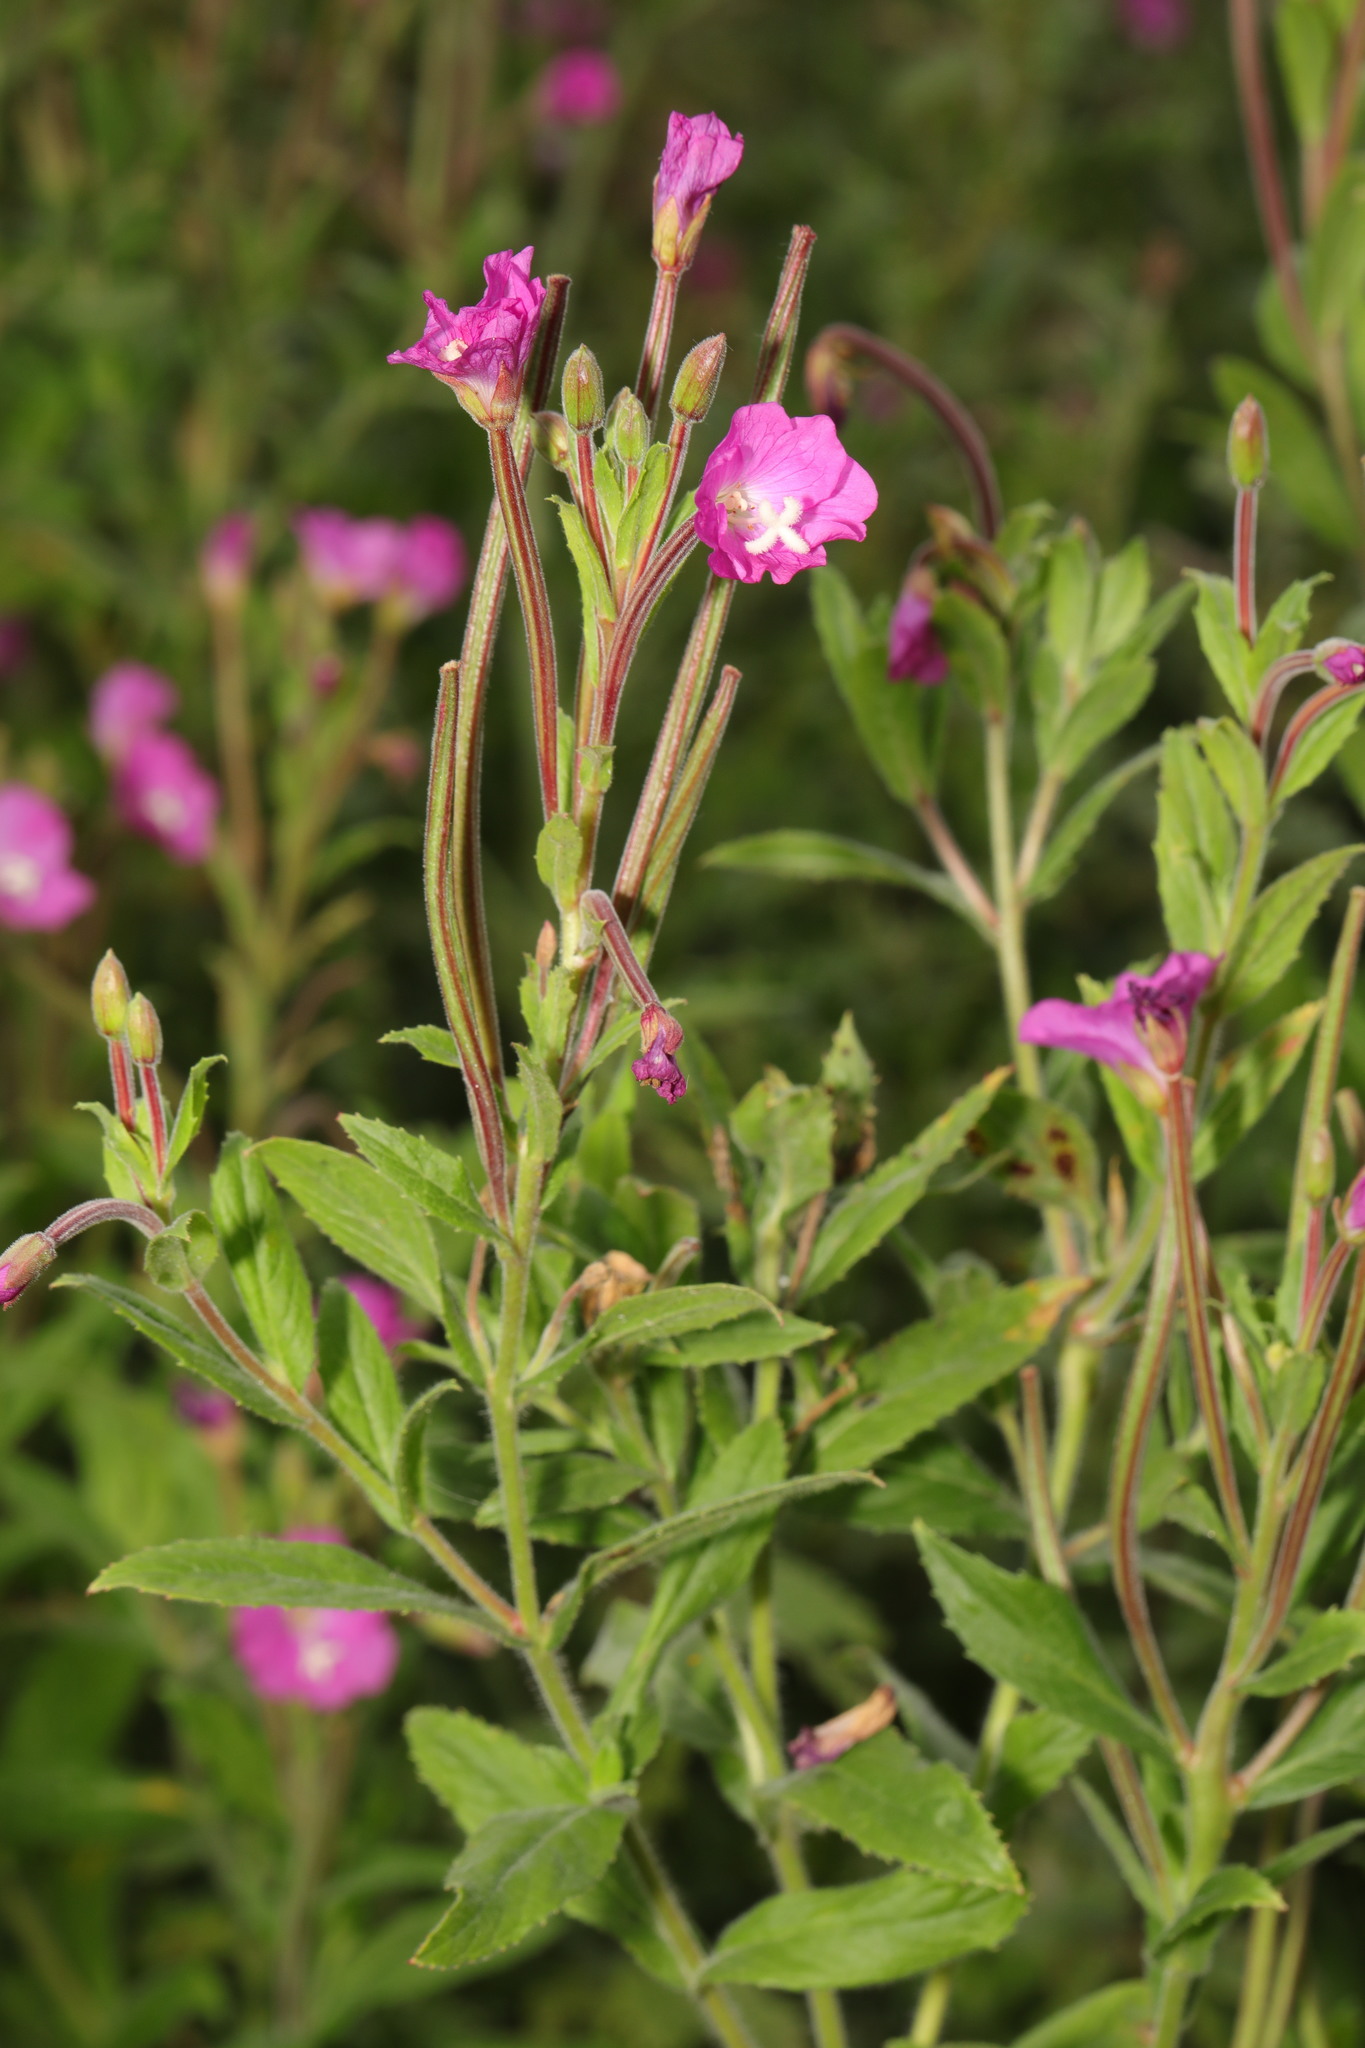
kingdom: Plantae
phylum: Tracheophyta
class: Magnoliopsida
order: Myrtales
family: Onagraceae
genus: Epilobium
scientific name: Epilobium hirsutum
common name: Great willowherb
